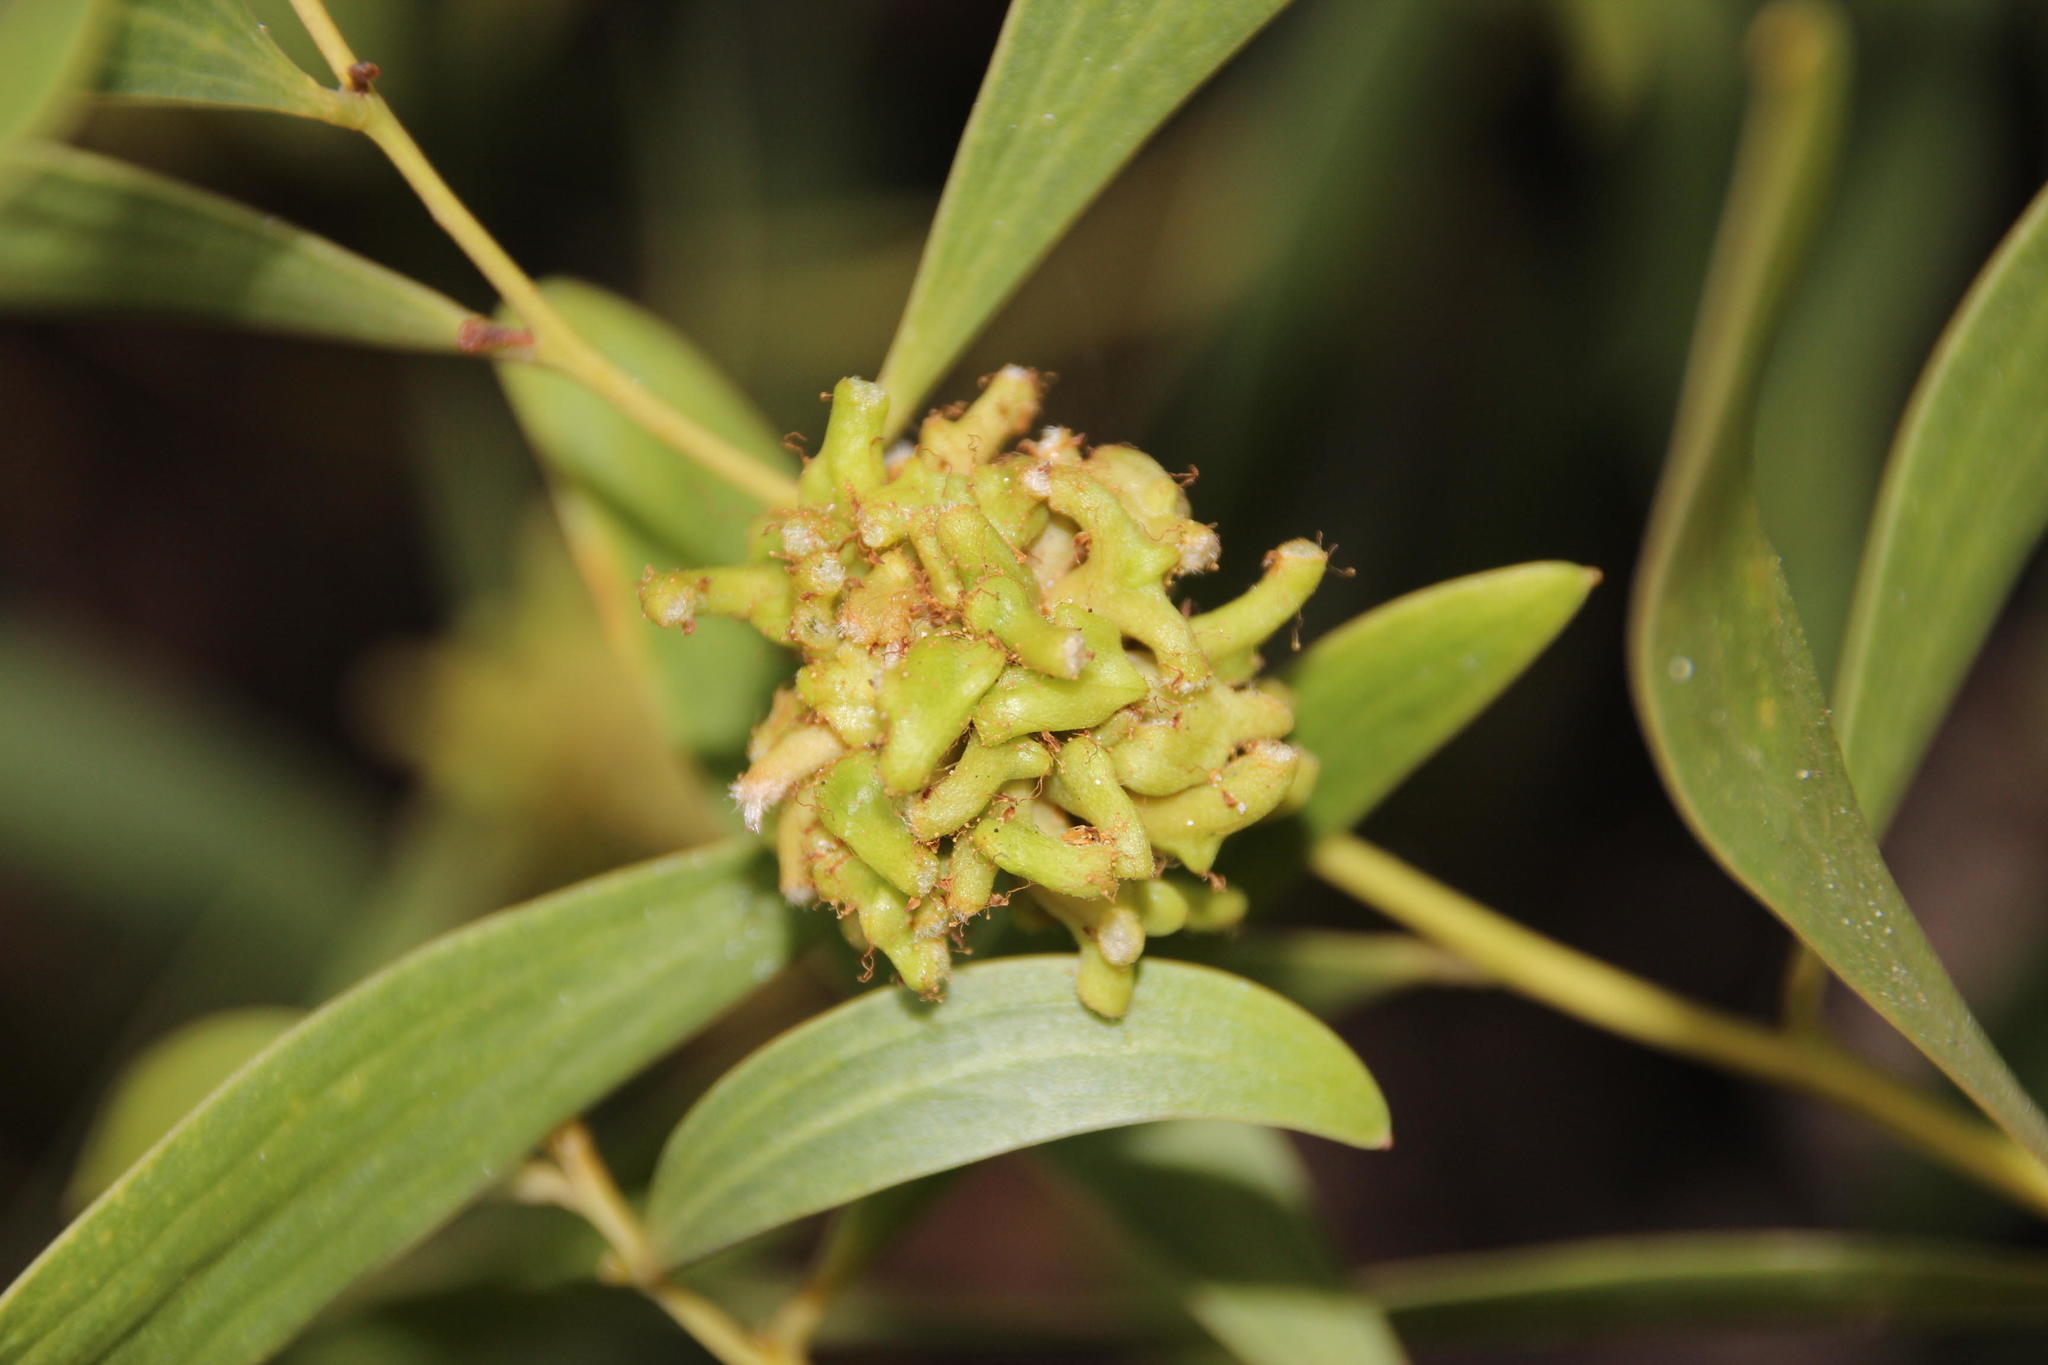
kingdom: Animalia
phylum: Arthropoda
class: Insecta
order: Diptera
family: Cecidomyiidae
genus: Dasineura
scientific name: Dasineura dielsi
